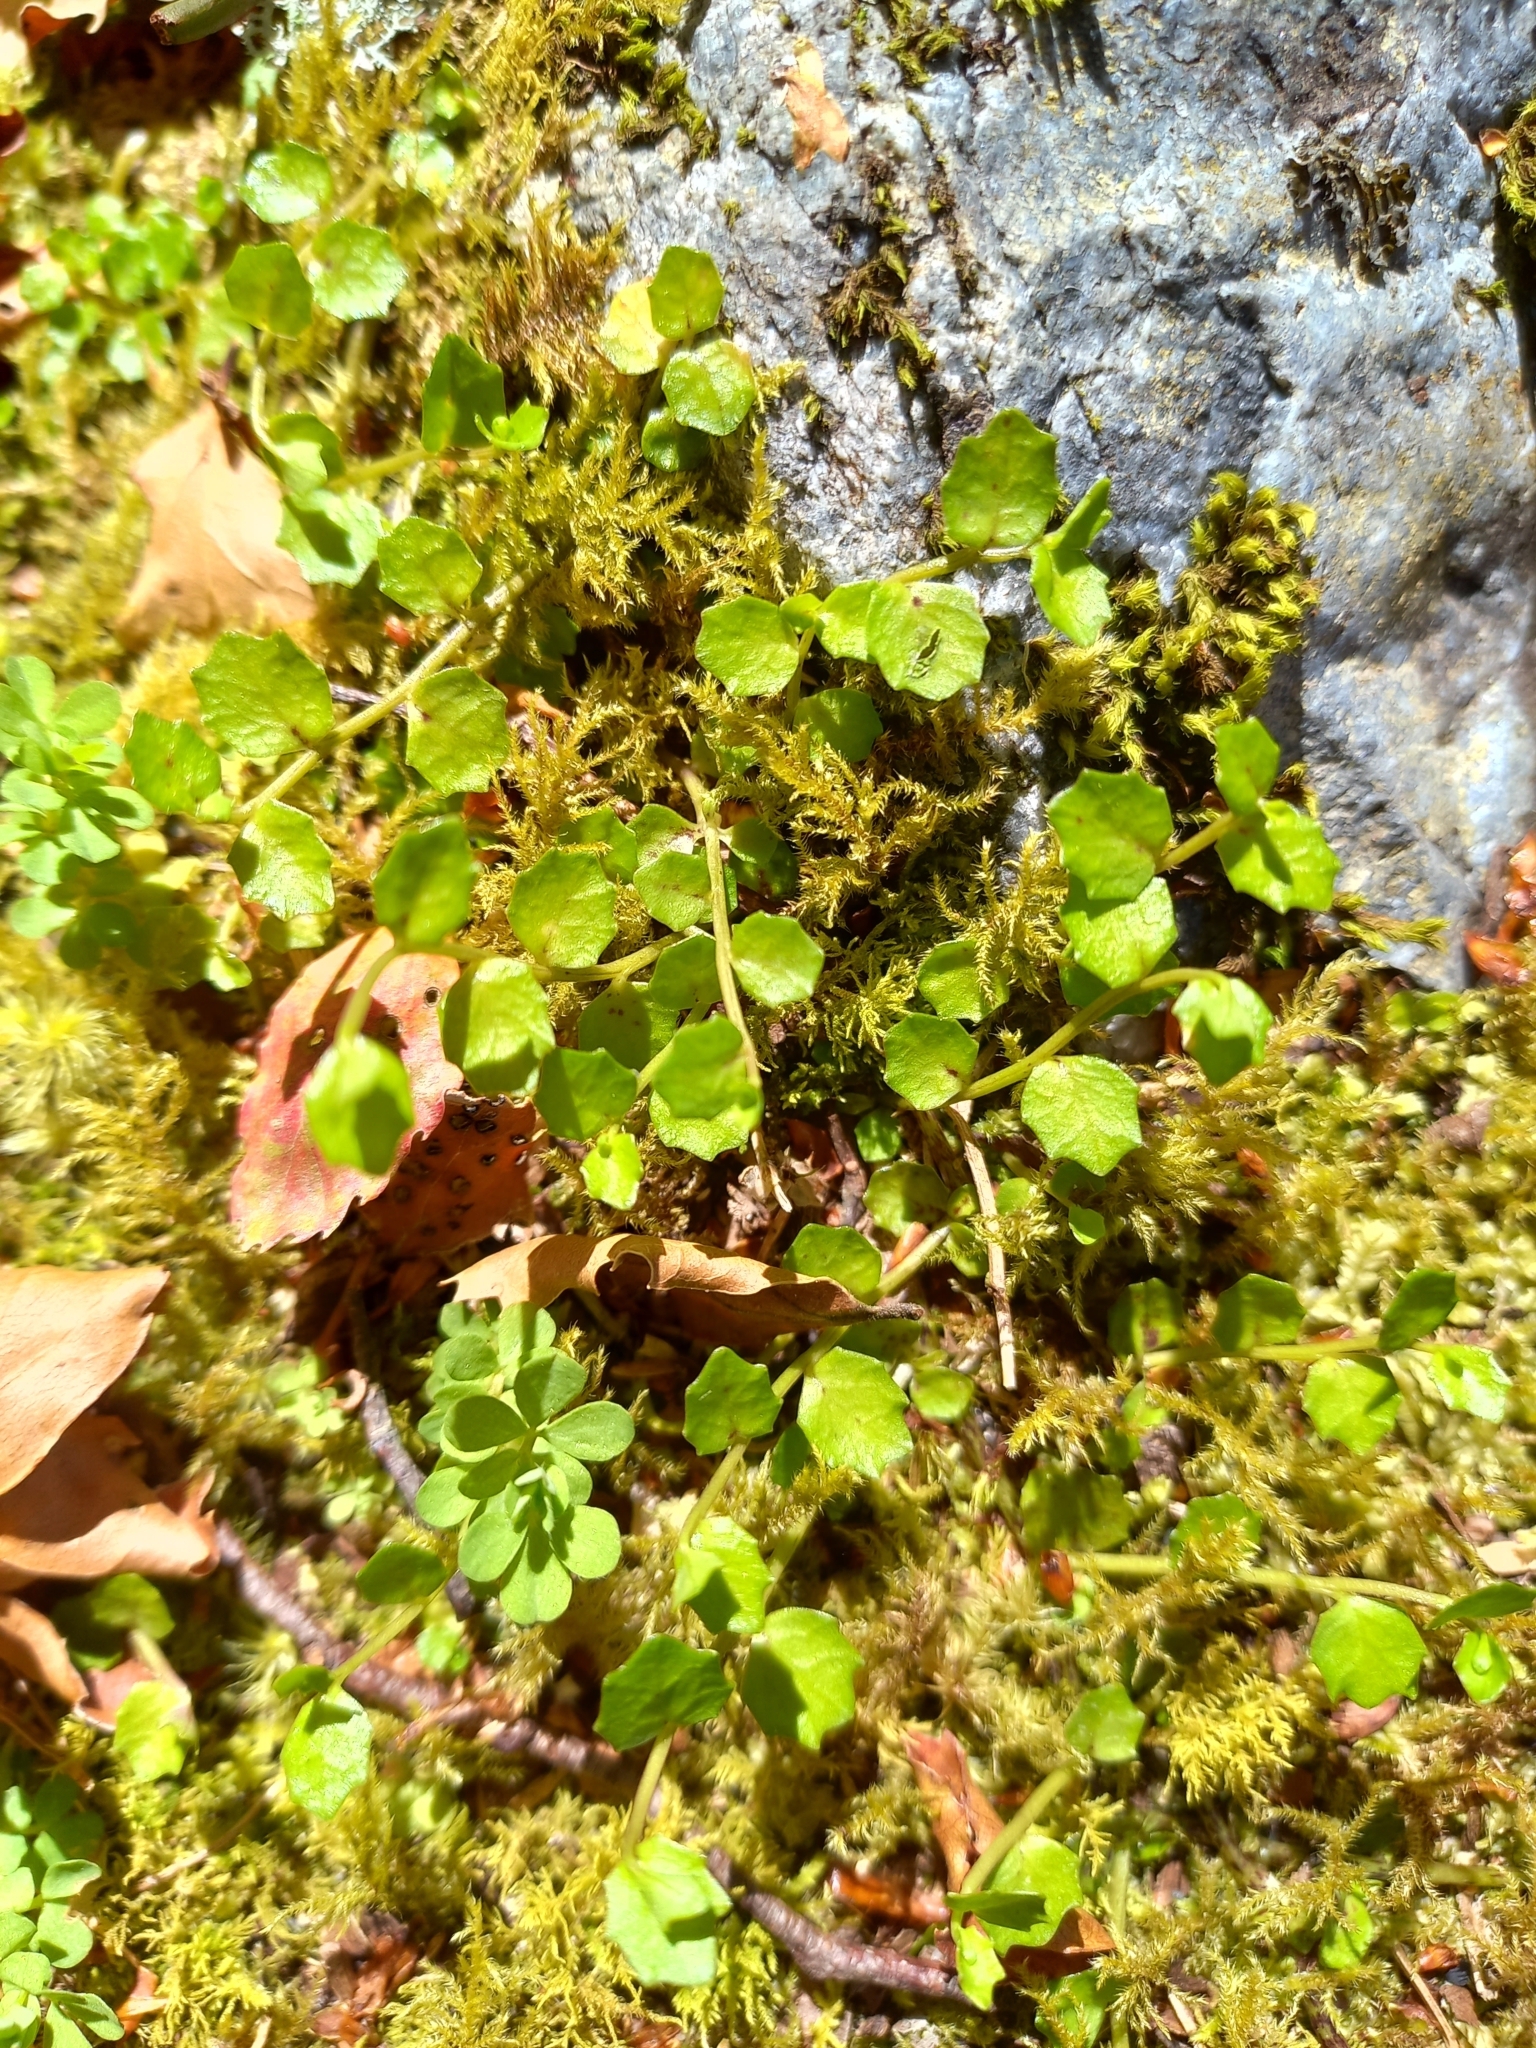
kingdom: Plantae
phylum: Tracheophyta
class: Magnoliopsida
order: Asterales
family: Campanulaceae
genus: Lobelia
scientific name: Lobelia angulata
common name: Lawn lobelia
